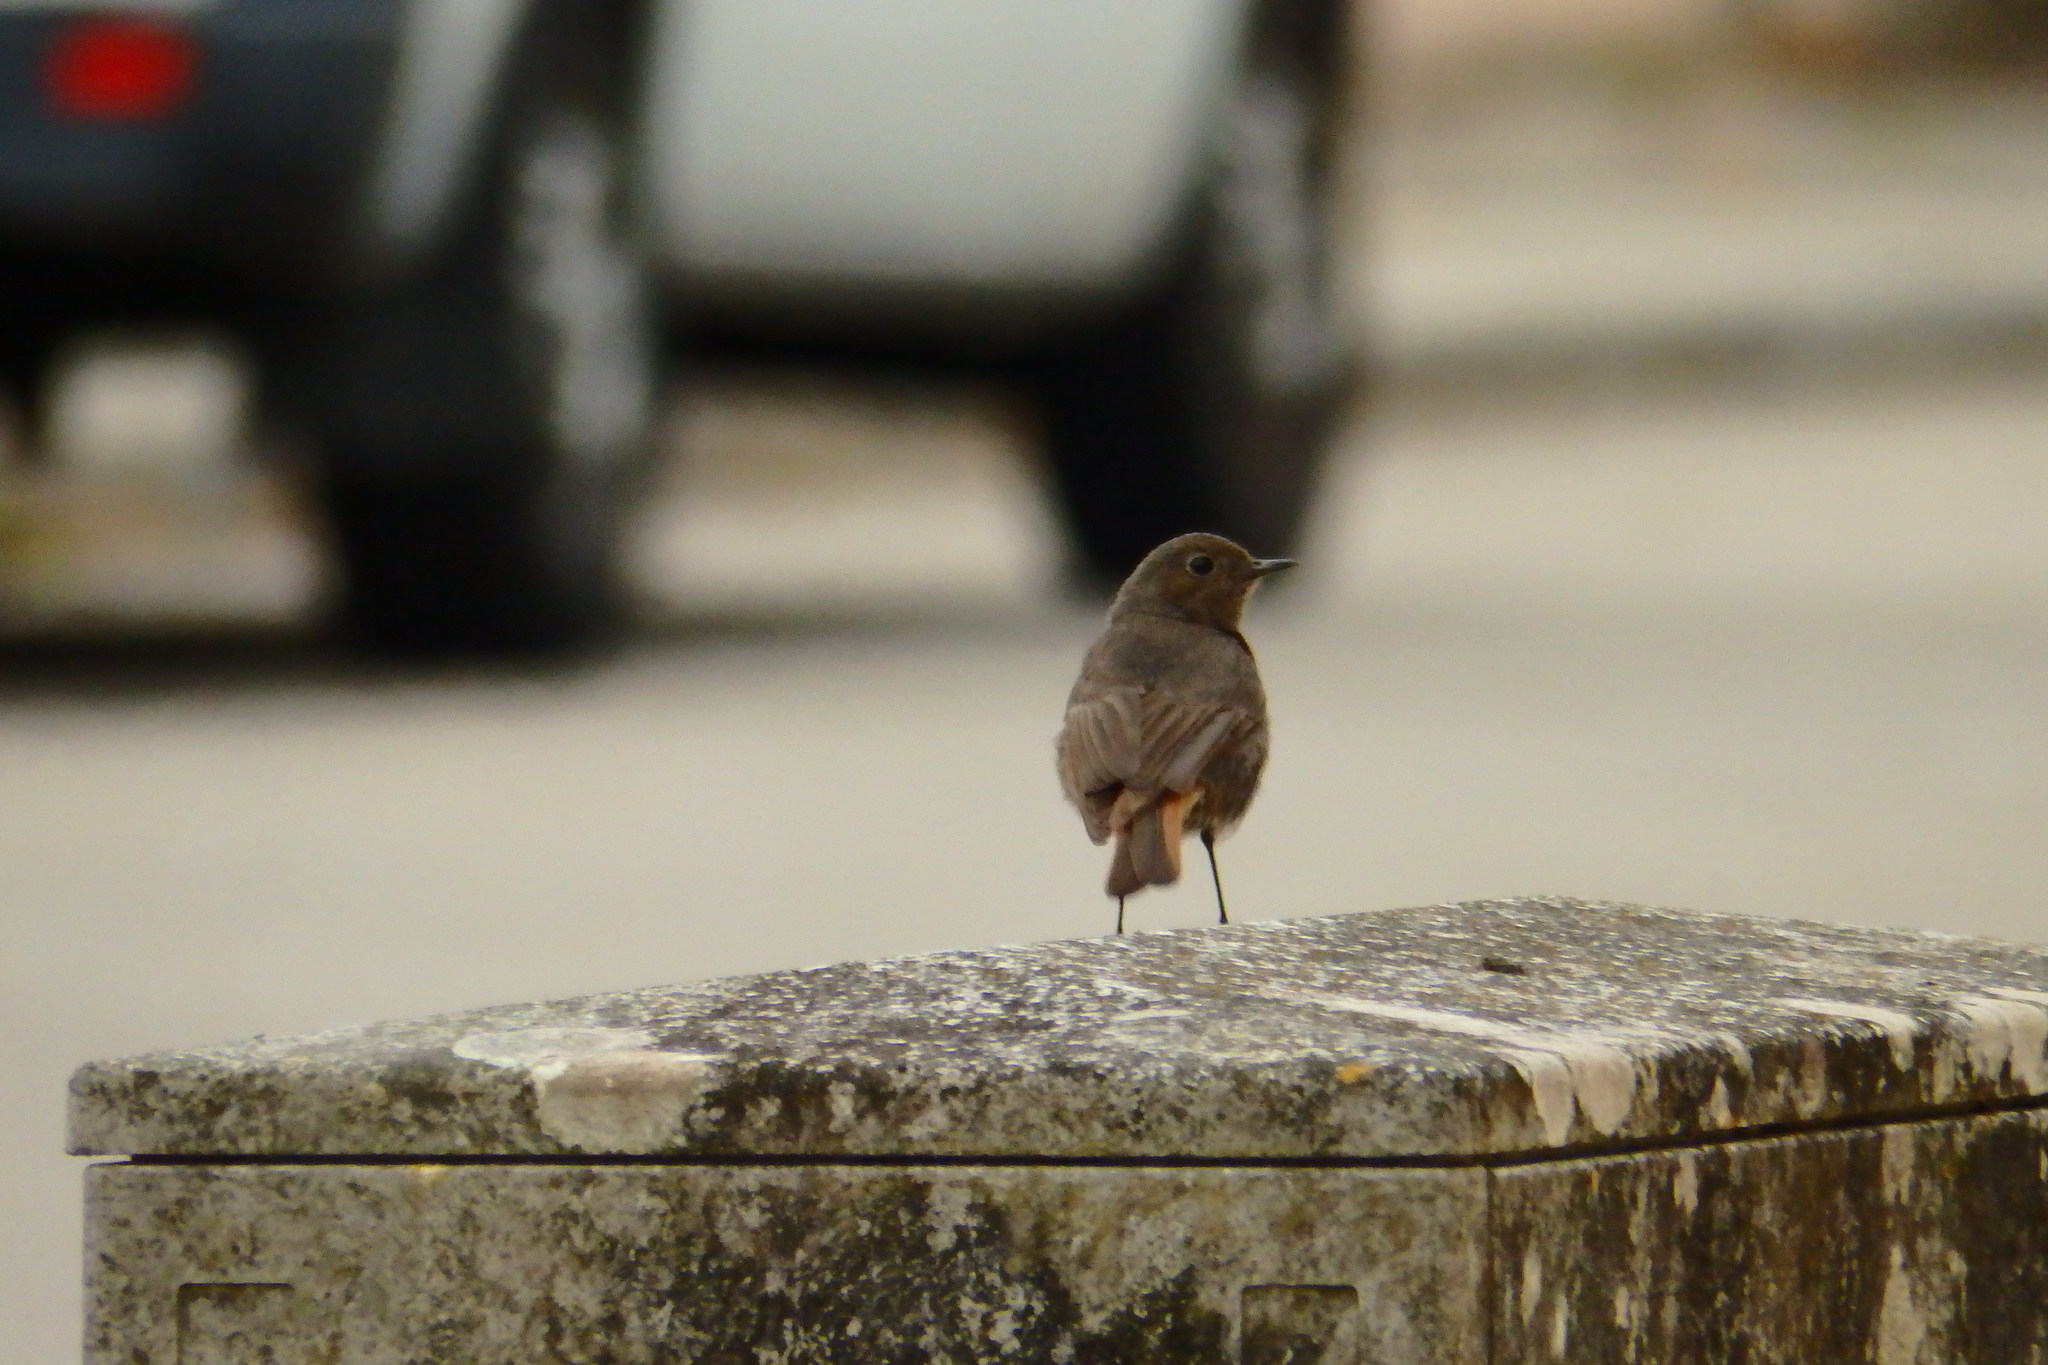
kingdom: Animalia
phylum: Chordata
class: Aves
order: Passeriformes
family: Muscicapidae
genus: Phoenicurus
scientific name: Phoenicurus ochruros
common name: Black redstart
